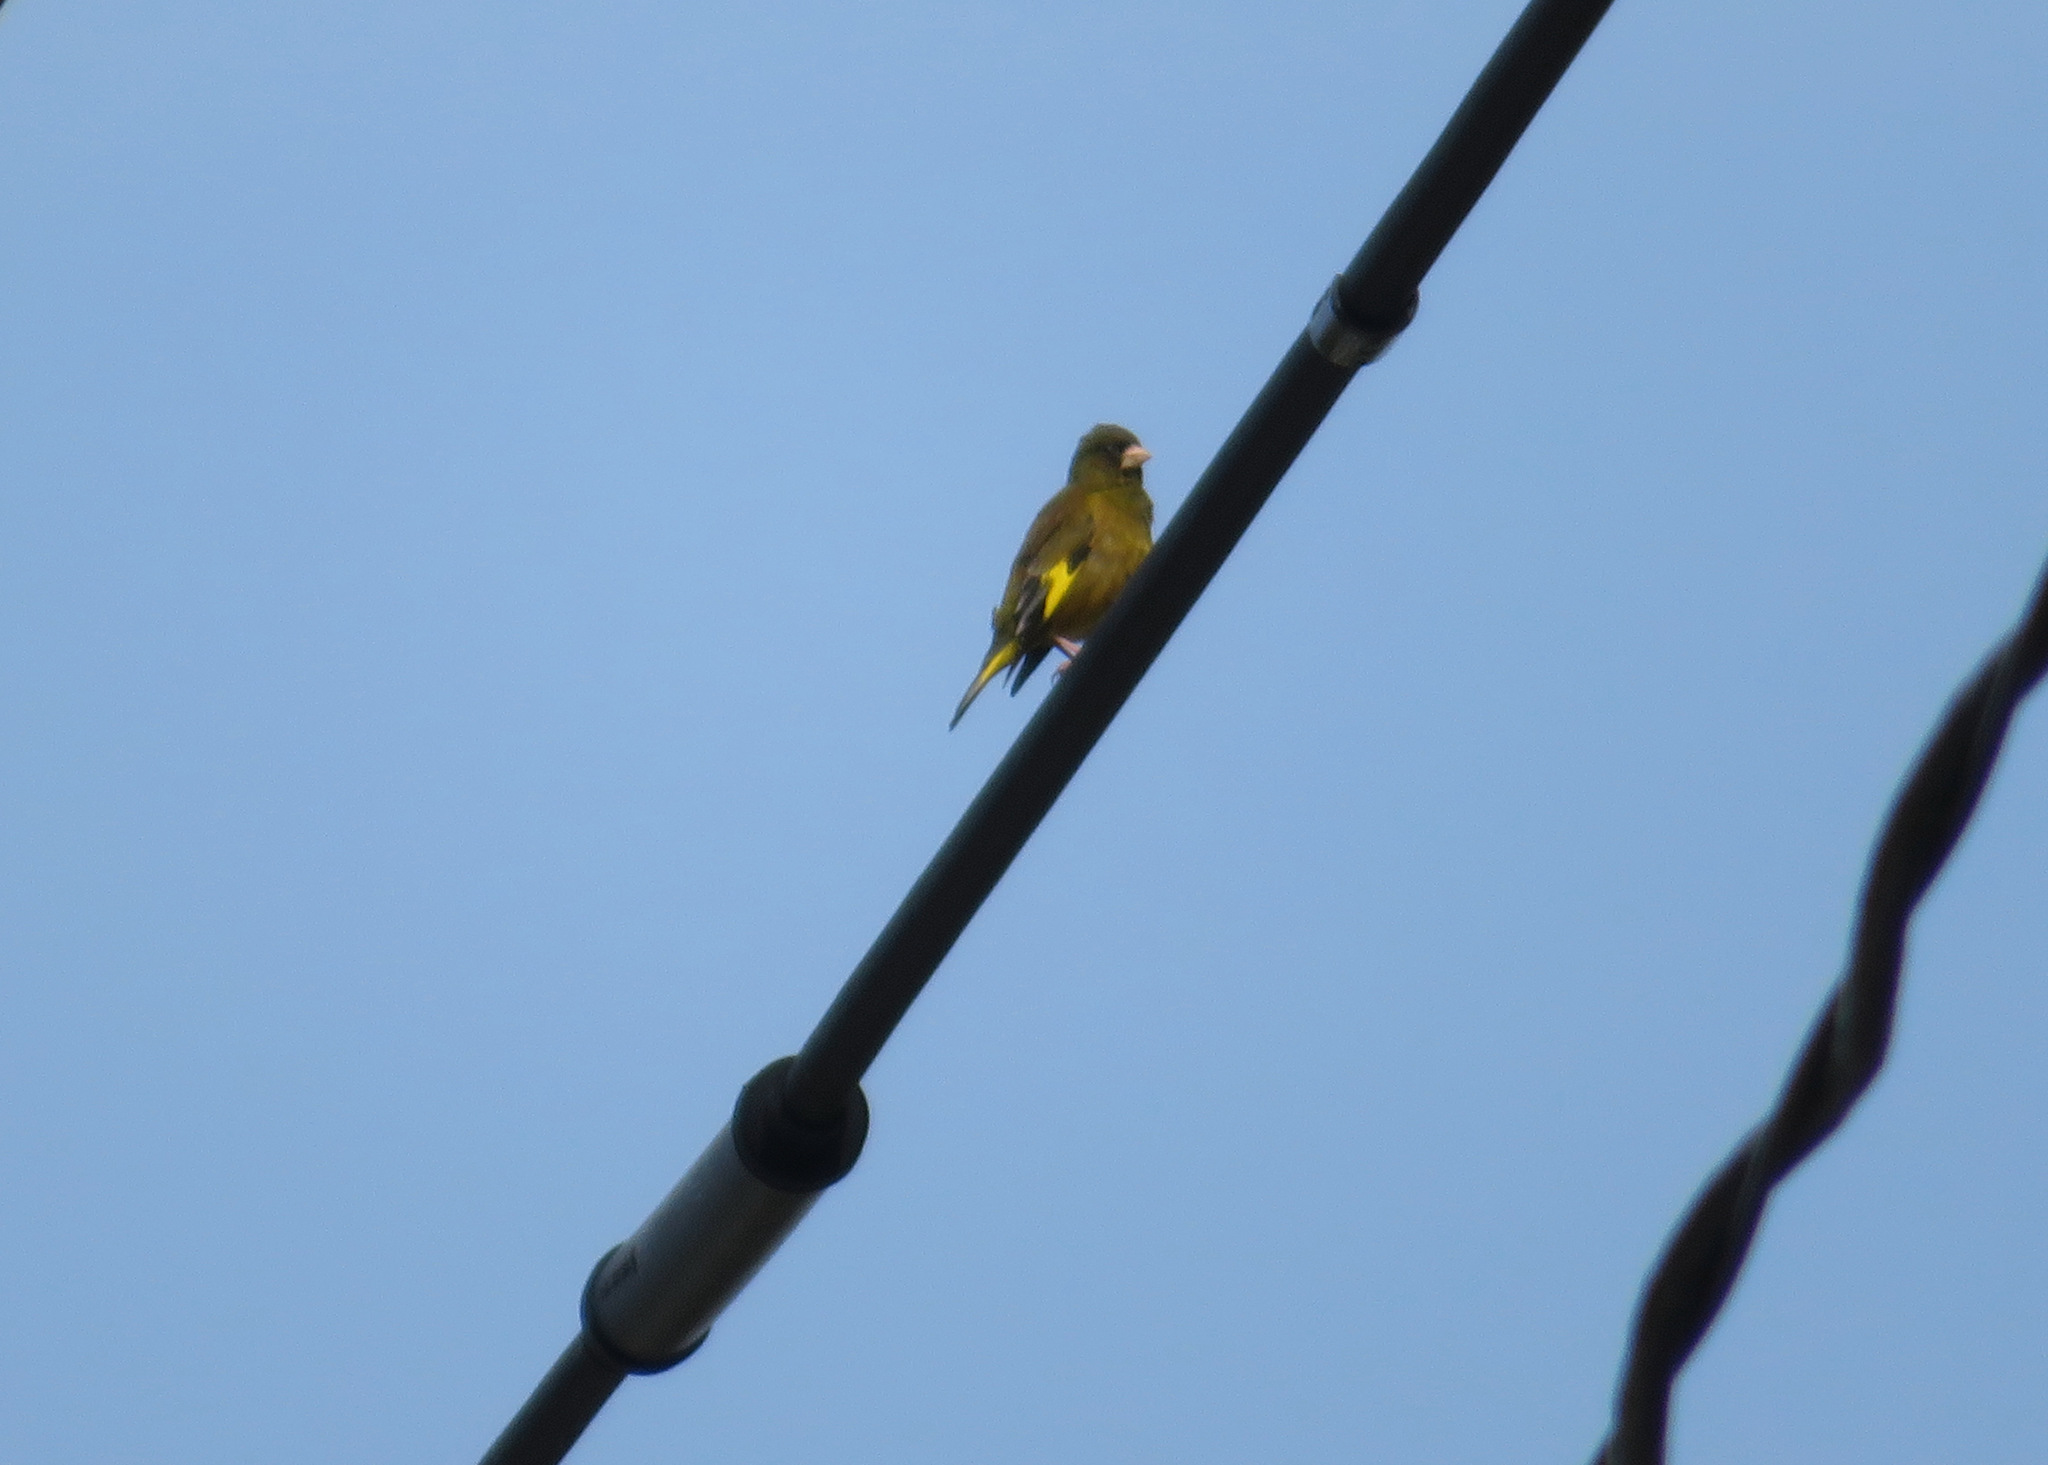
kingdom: Plantae
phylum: Tracheophyta
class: Liliopsida
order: Poales
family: Poaceae
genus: Chloris
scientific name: Chloris sinica
